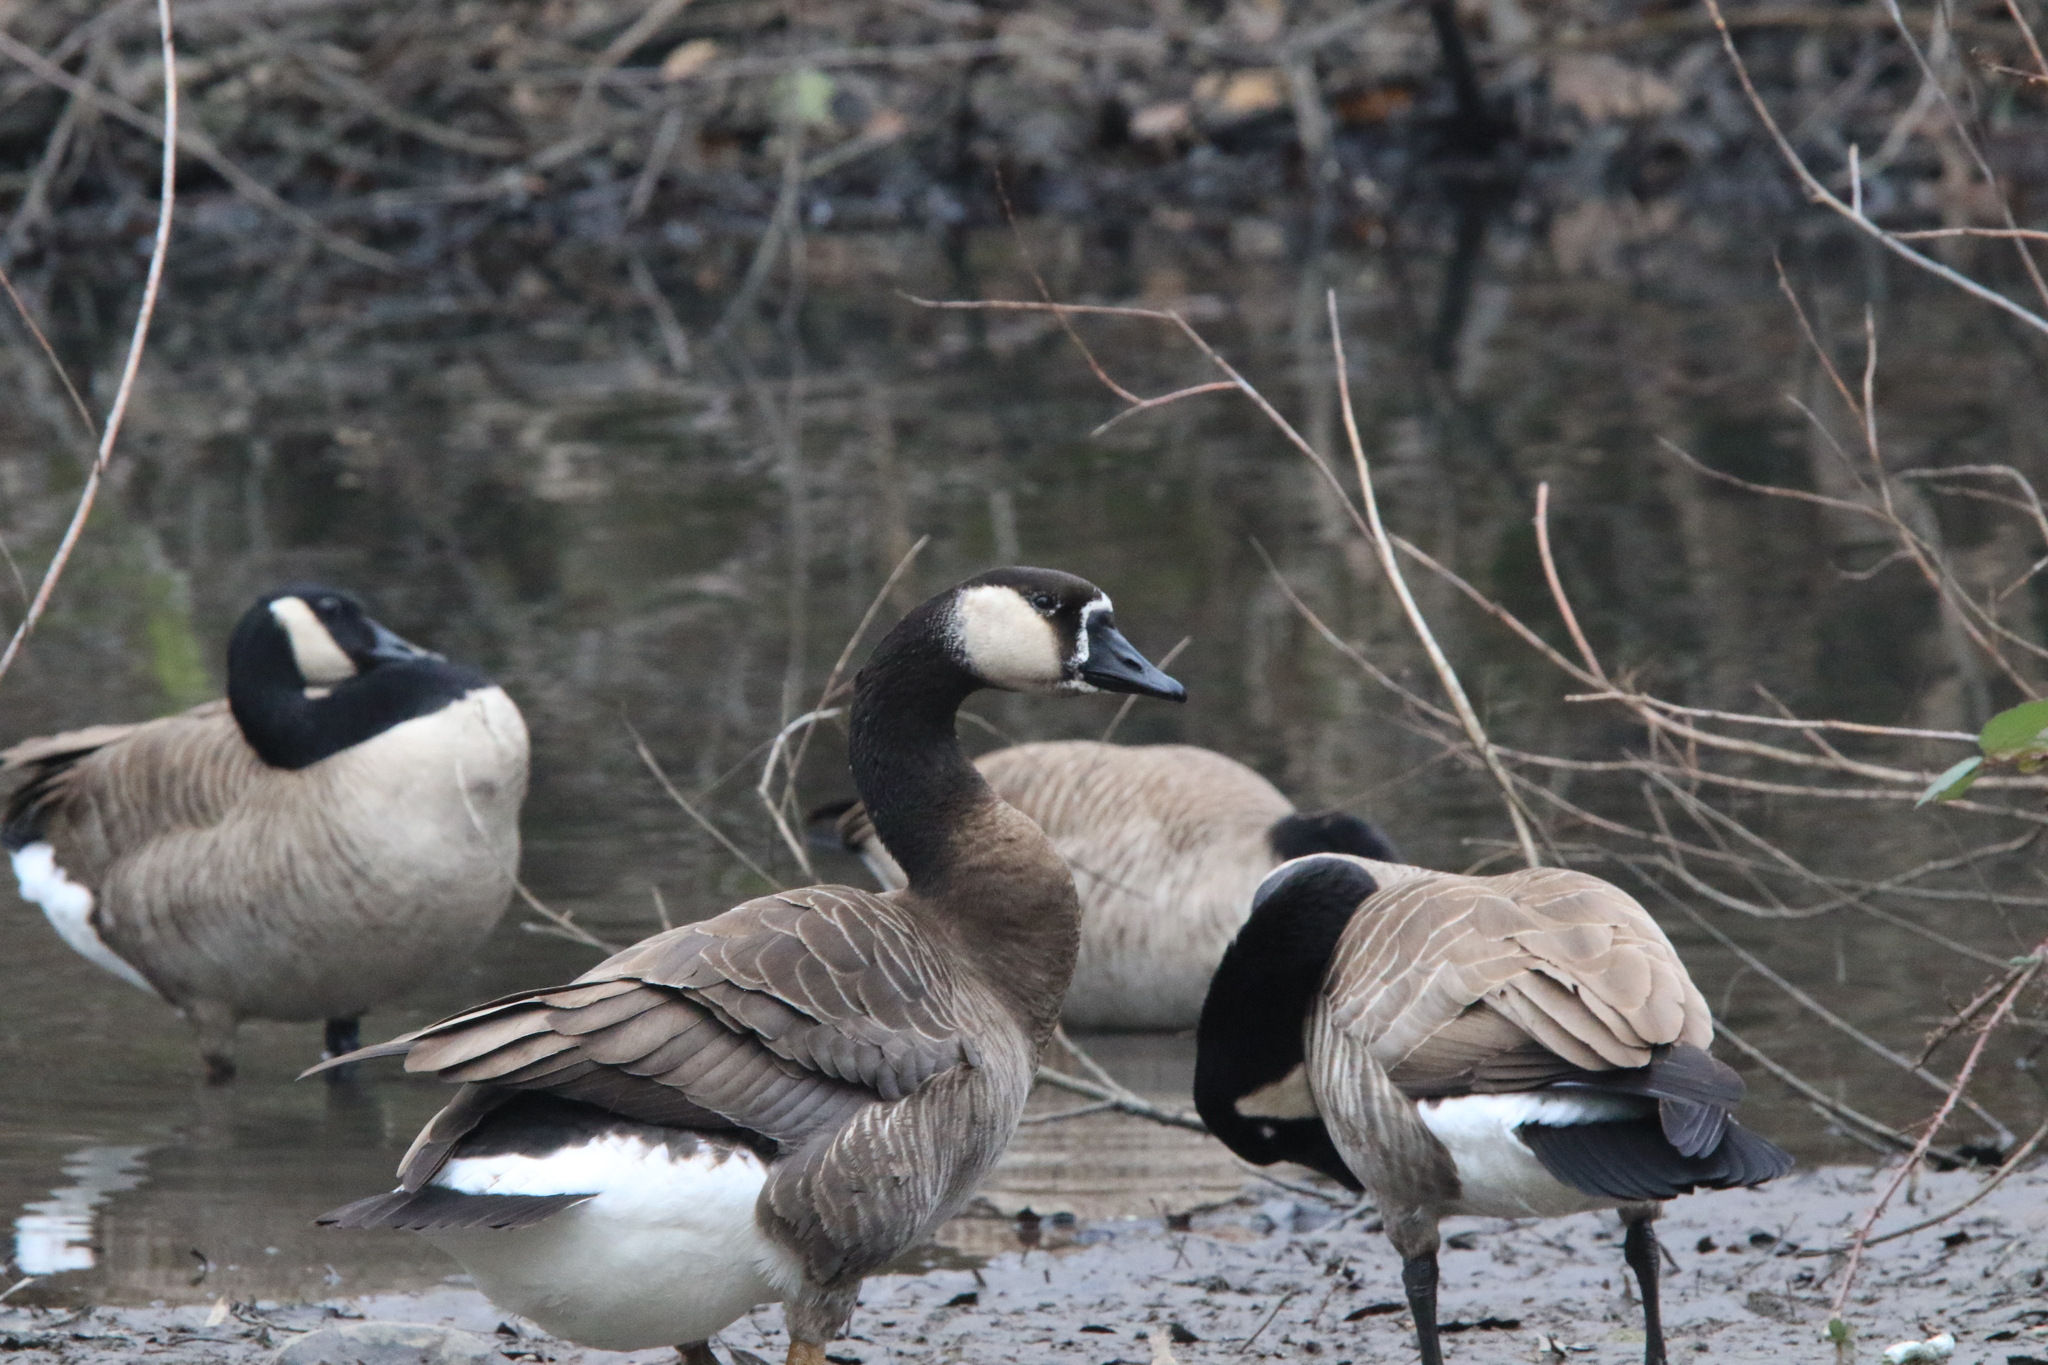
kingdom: Animalia
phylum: Chordata
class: Aves
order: Anseriformes
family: Anatidae
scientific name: Anatidae
